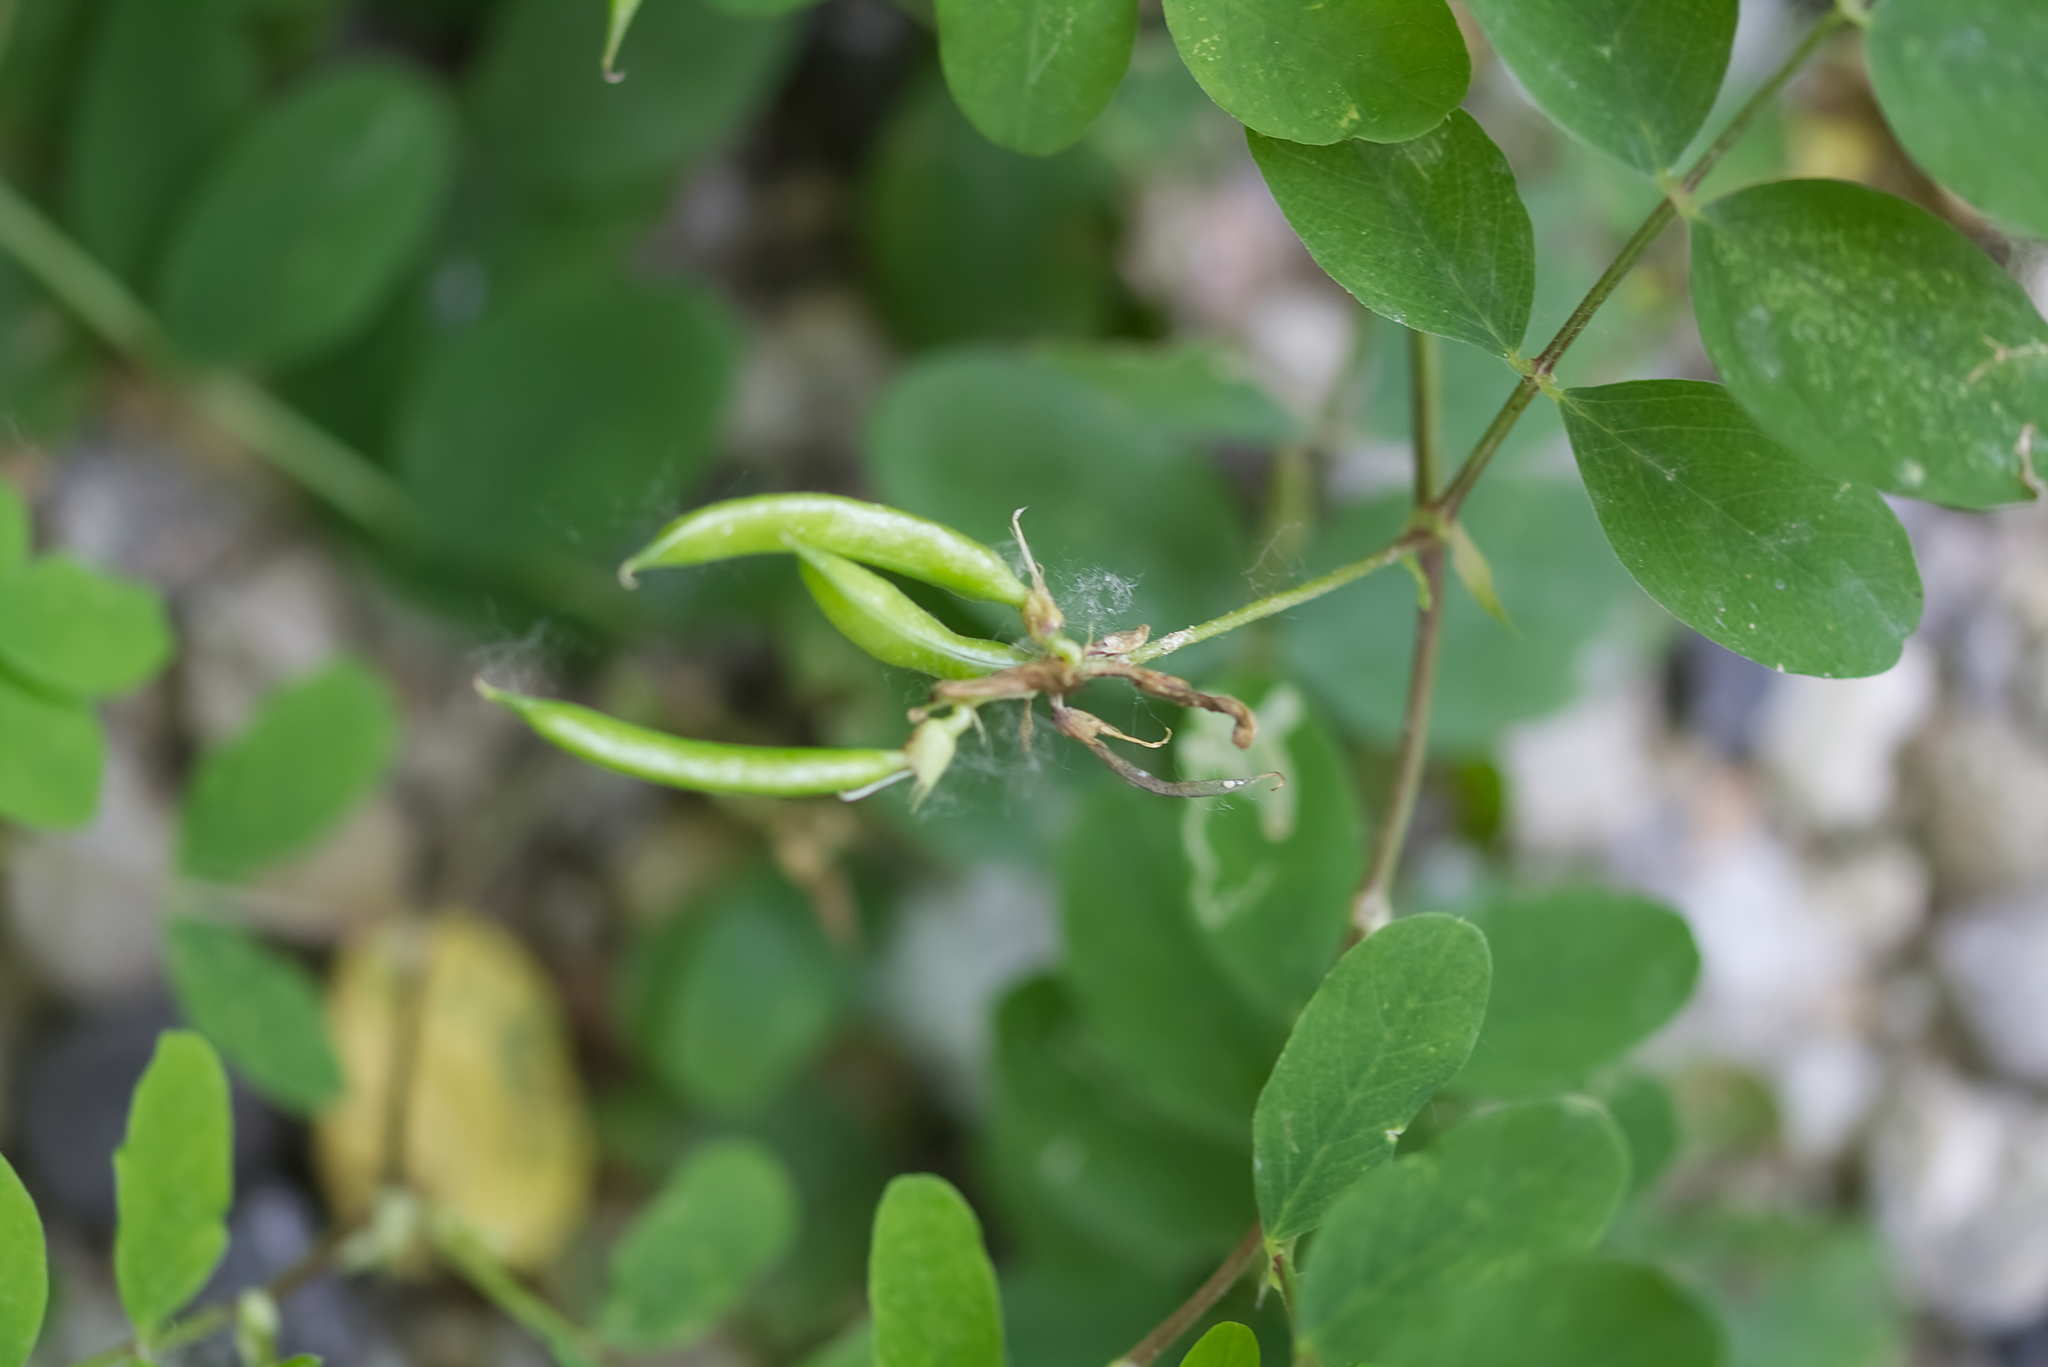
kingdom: Plantae
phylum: Tracheophyta
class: Magnoliopsida
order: Fabales
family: Fabaceae
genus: Astragalus
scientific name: Astragalus glycyphyllos
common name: Wild liquorice
